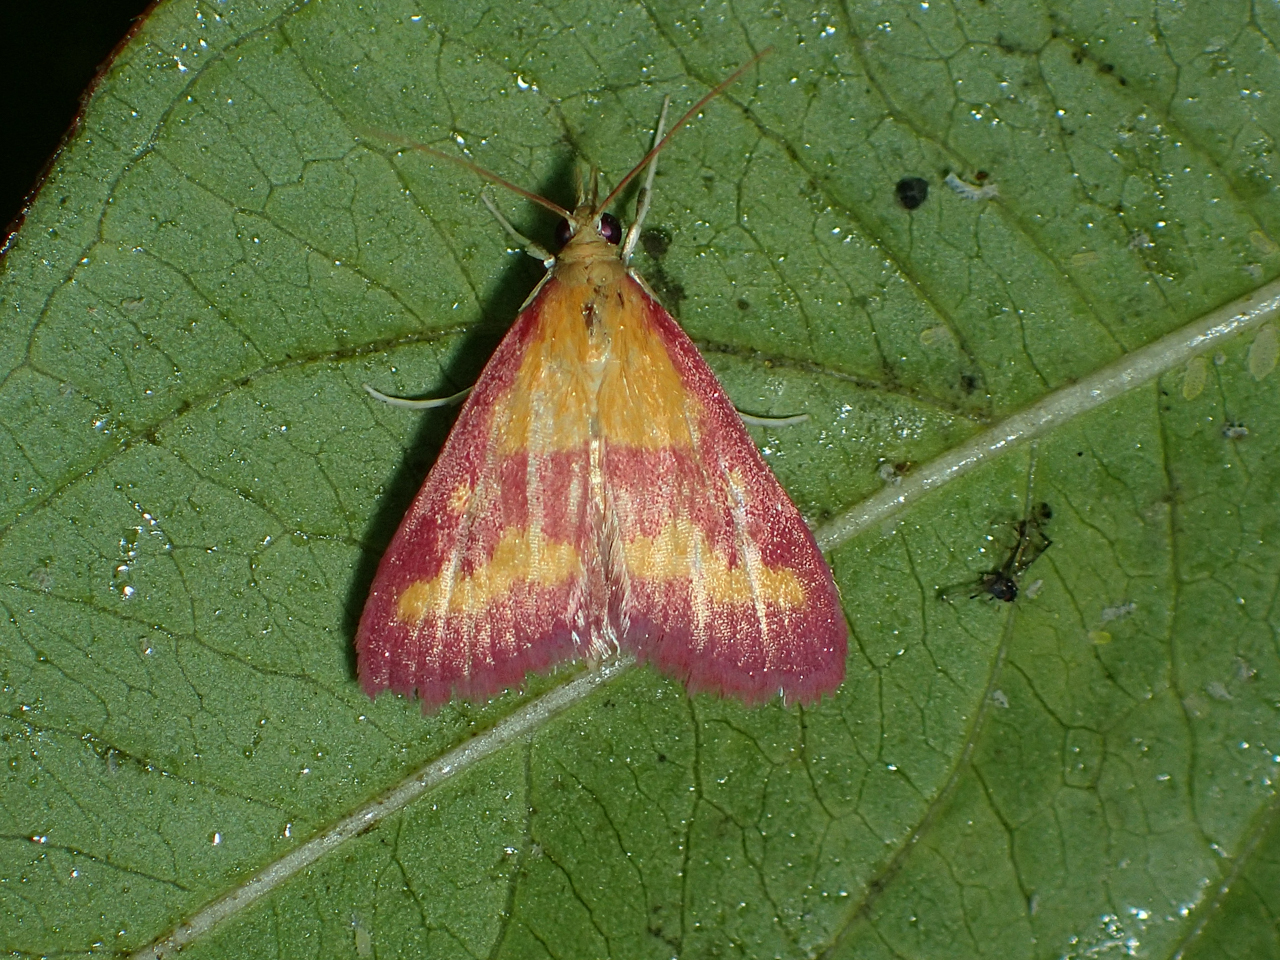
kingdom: Animalia
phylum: Arthropoda
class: Insecta
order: Lepidoptera
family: Crambidae
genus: Pyrausta
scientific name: Pyrausta laticlavia
